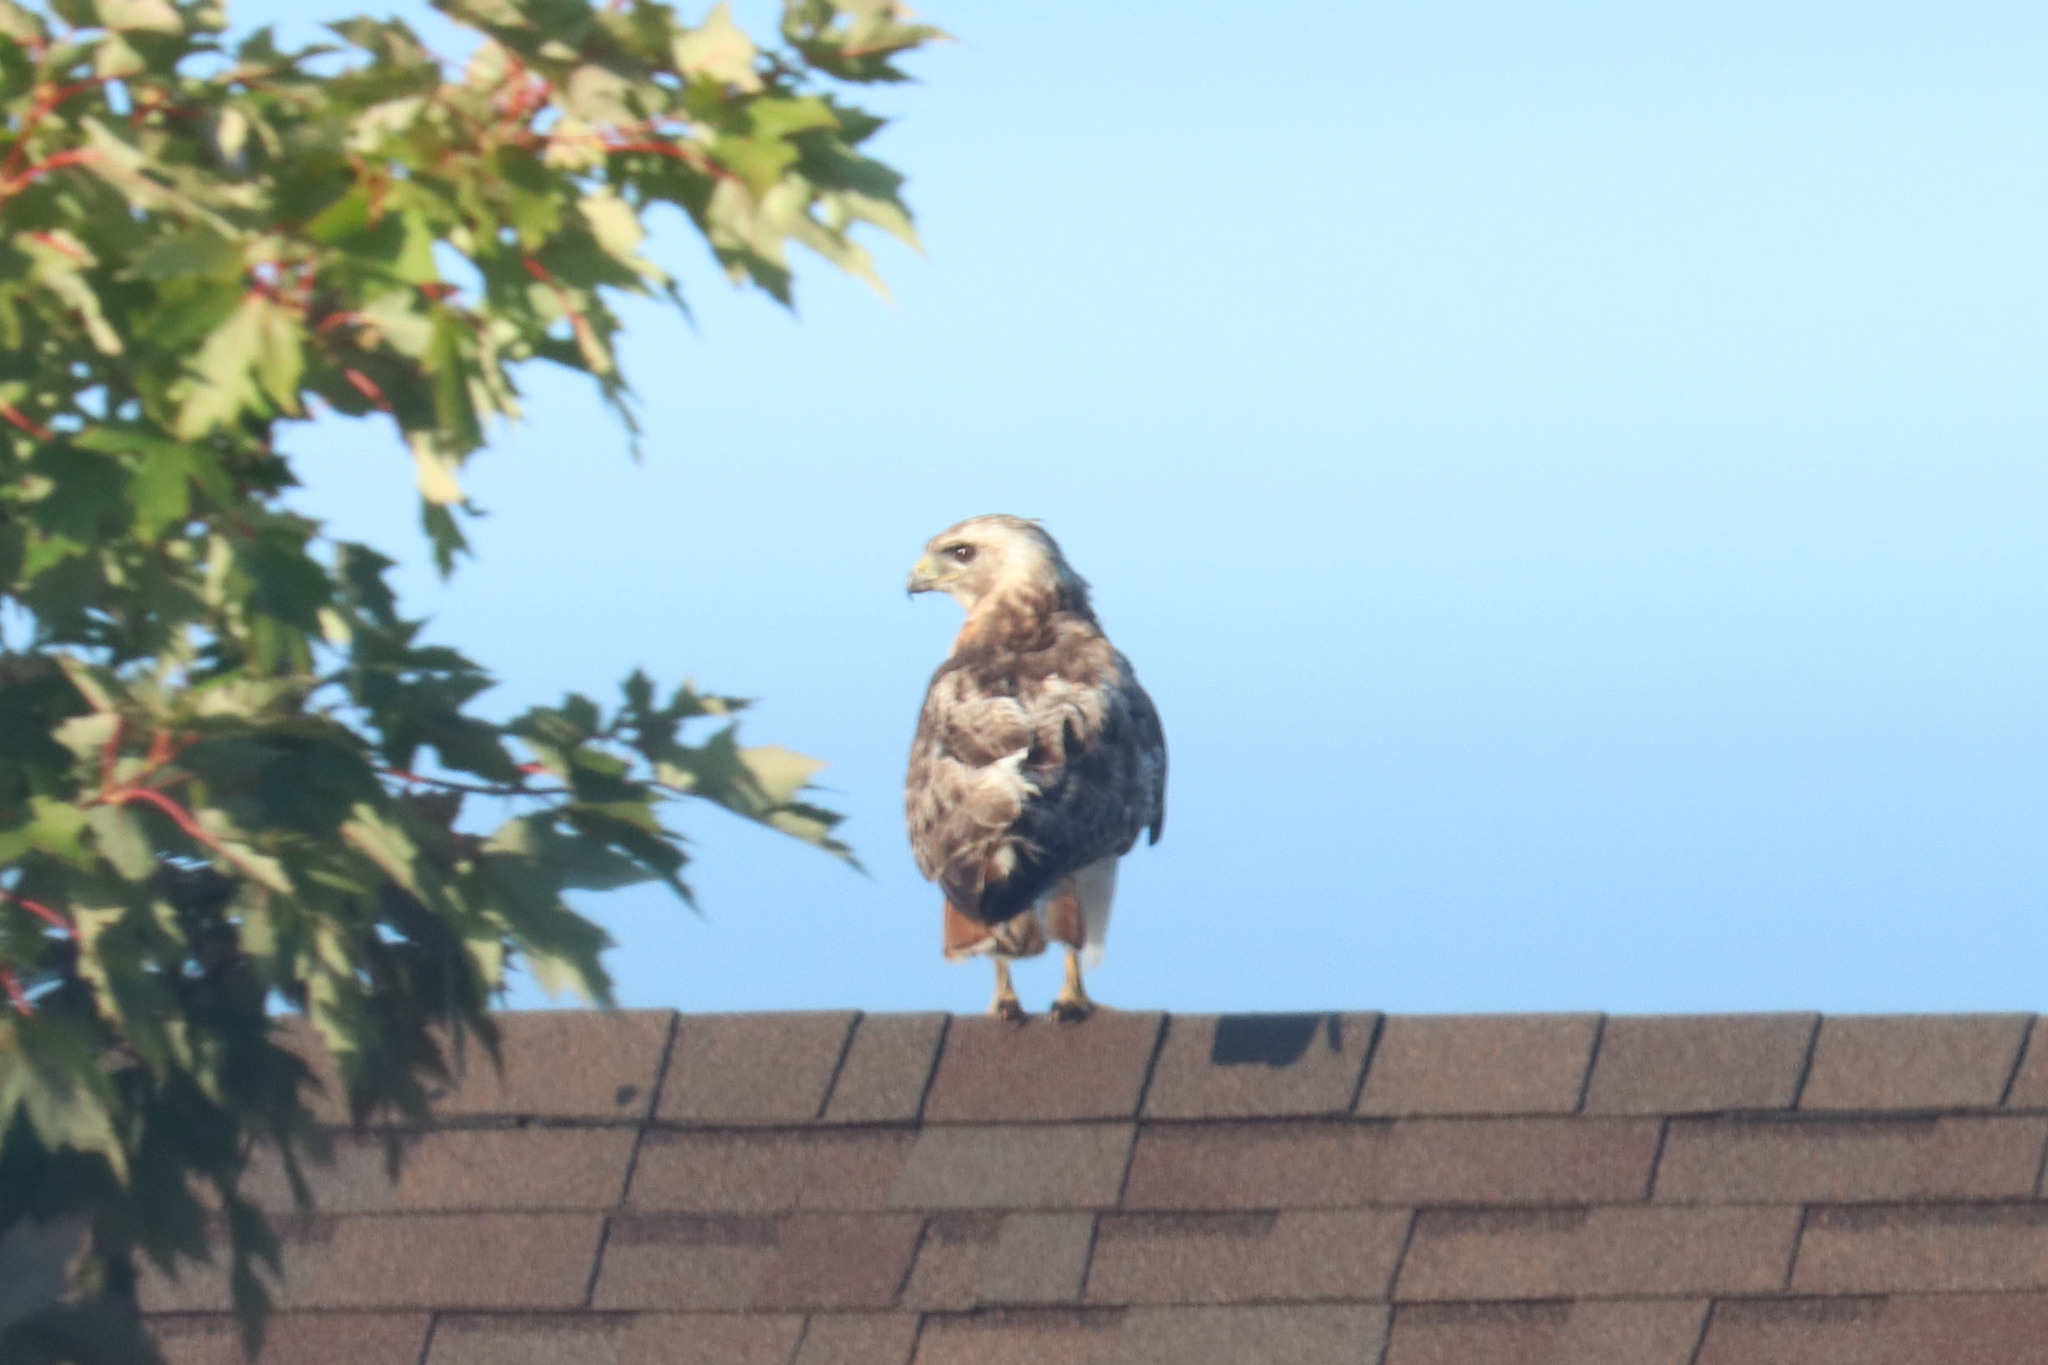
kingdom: Animalia
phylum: Chordata
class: Aves
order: Accipitriformes
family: Accipitridae
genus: Buteo
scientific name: Buteo jamaicensis
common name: Red-tailed hawk
